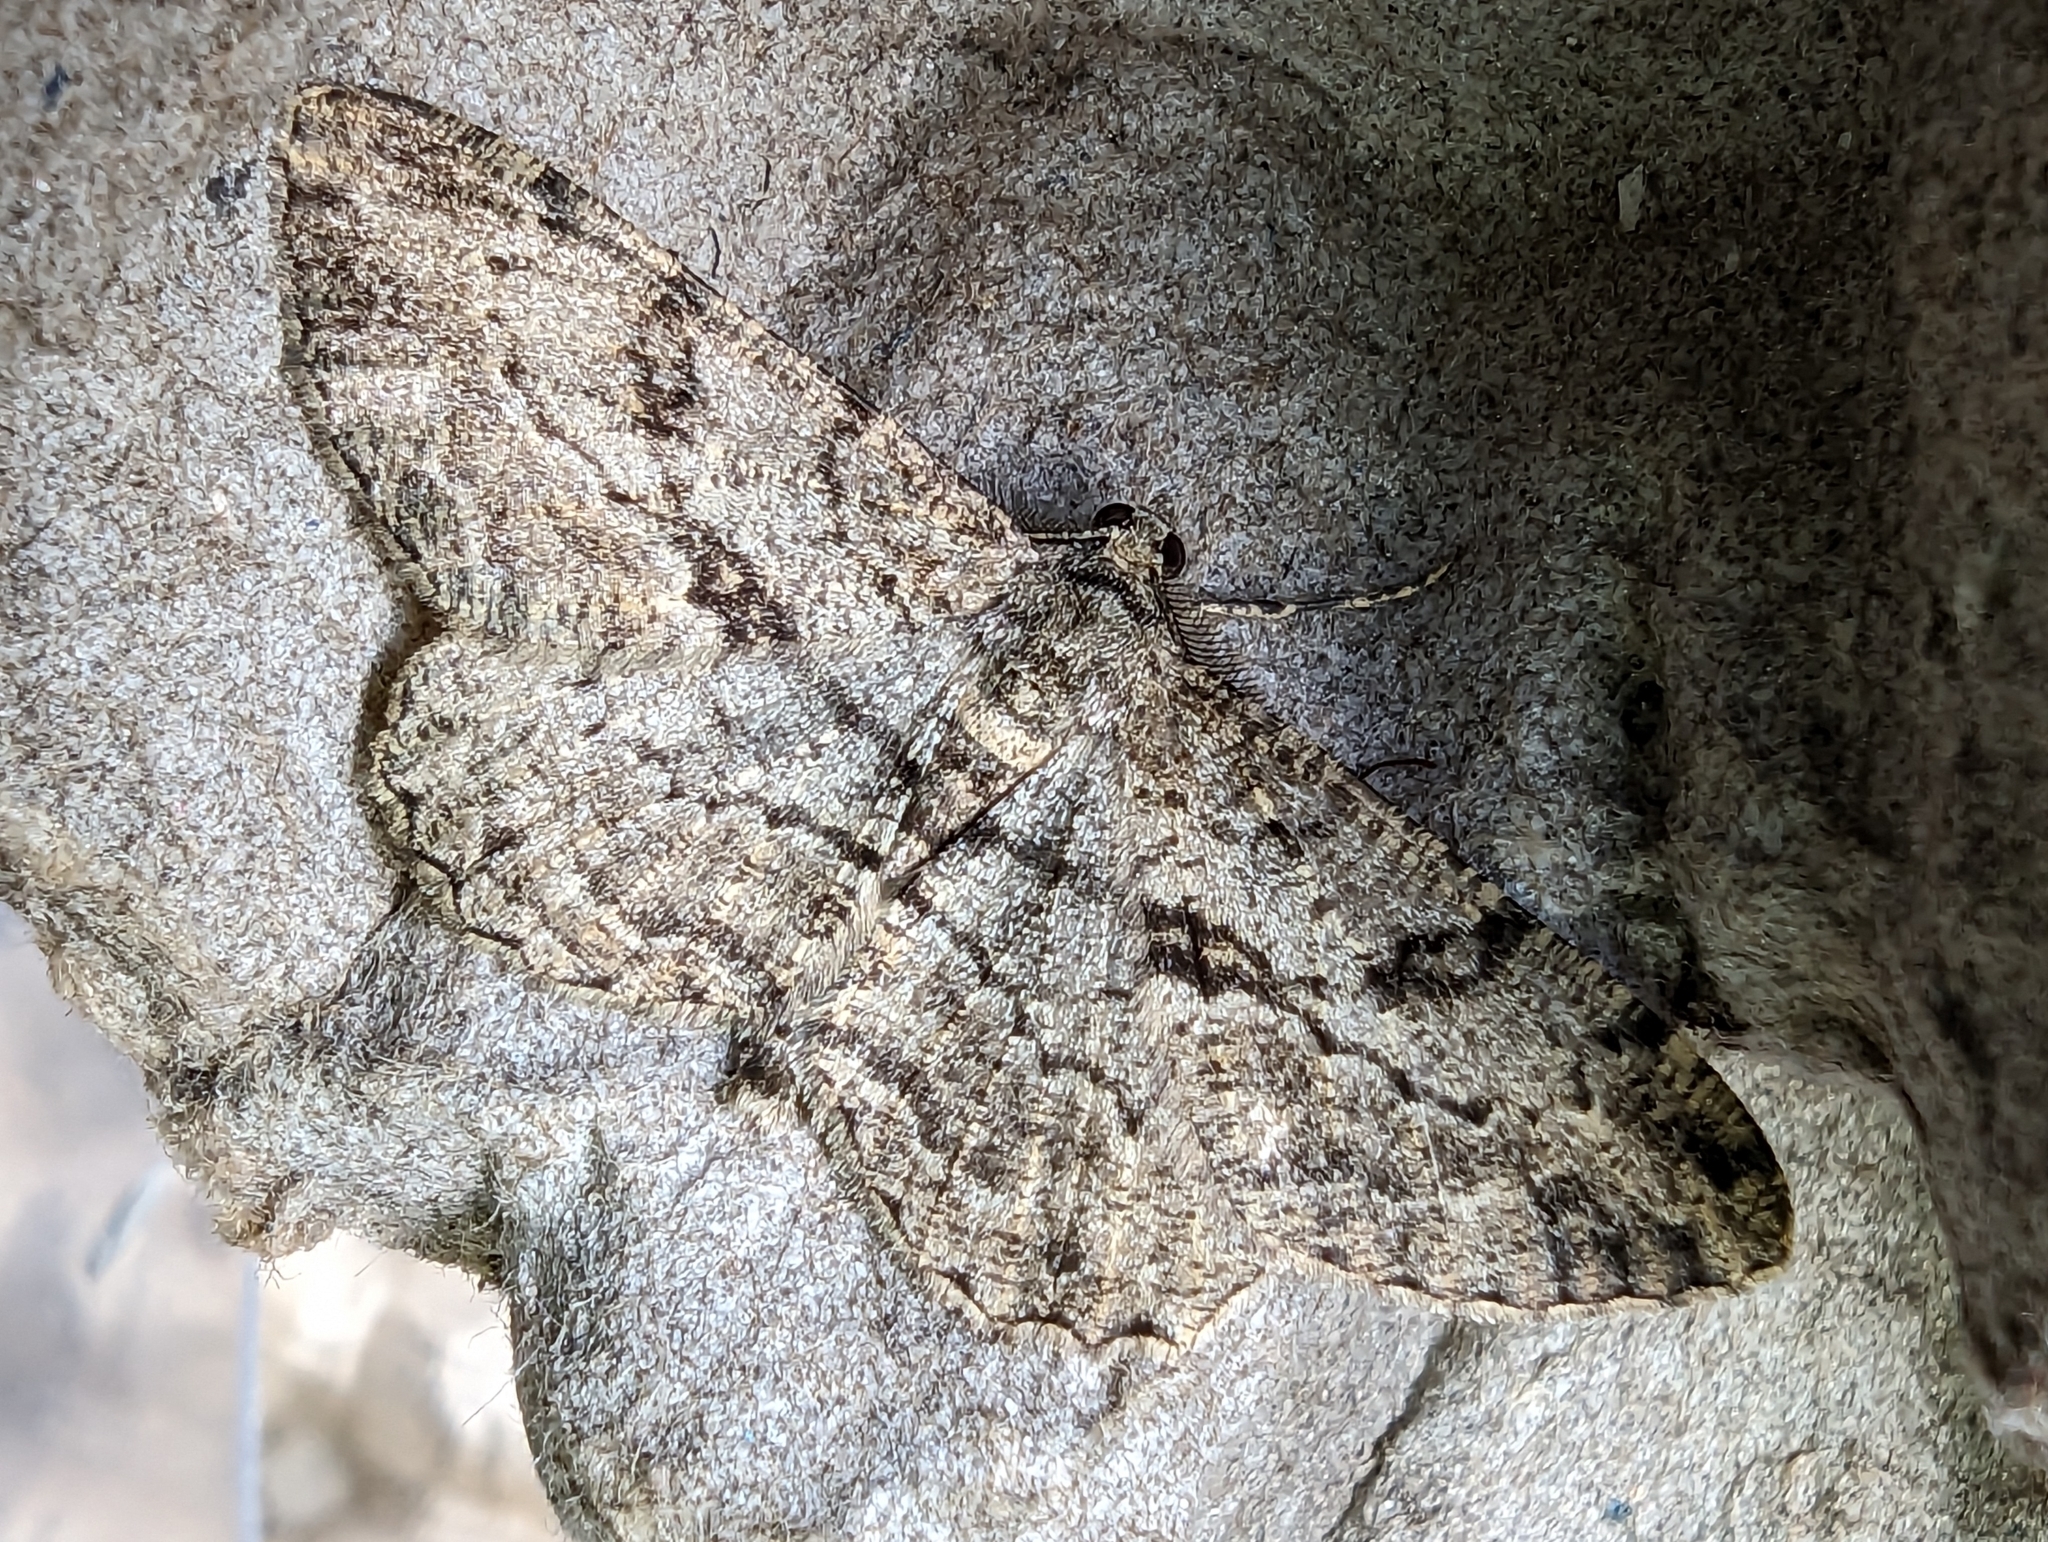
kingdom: Animalia
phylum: Arthropoda
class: Insecta
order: Lepidoptera
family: Geometridae
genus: Peribatodes
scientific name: Peribatodes rhomboidaria
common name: Willow beauty
